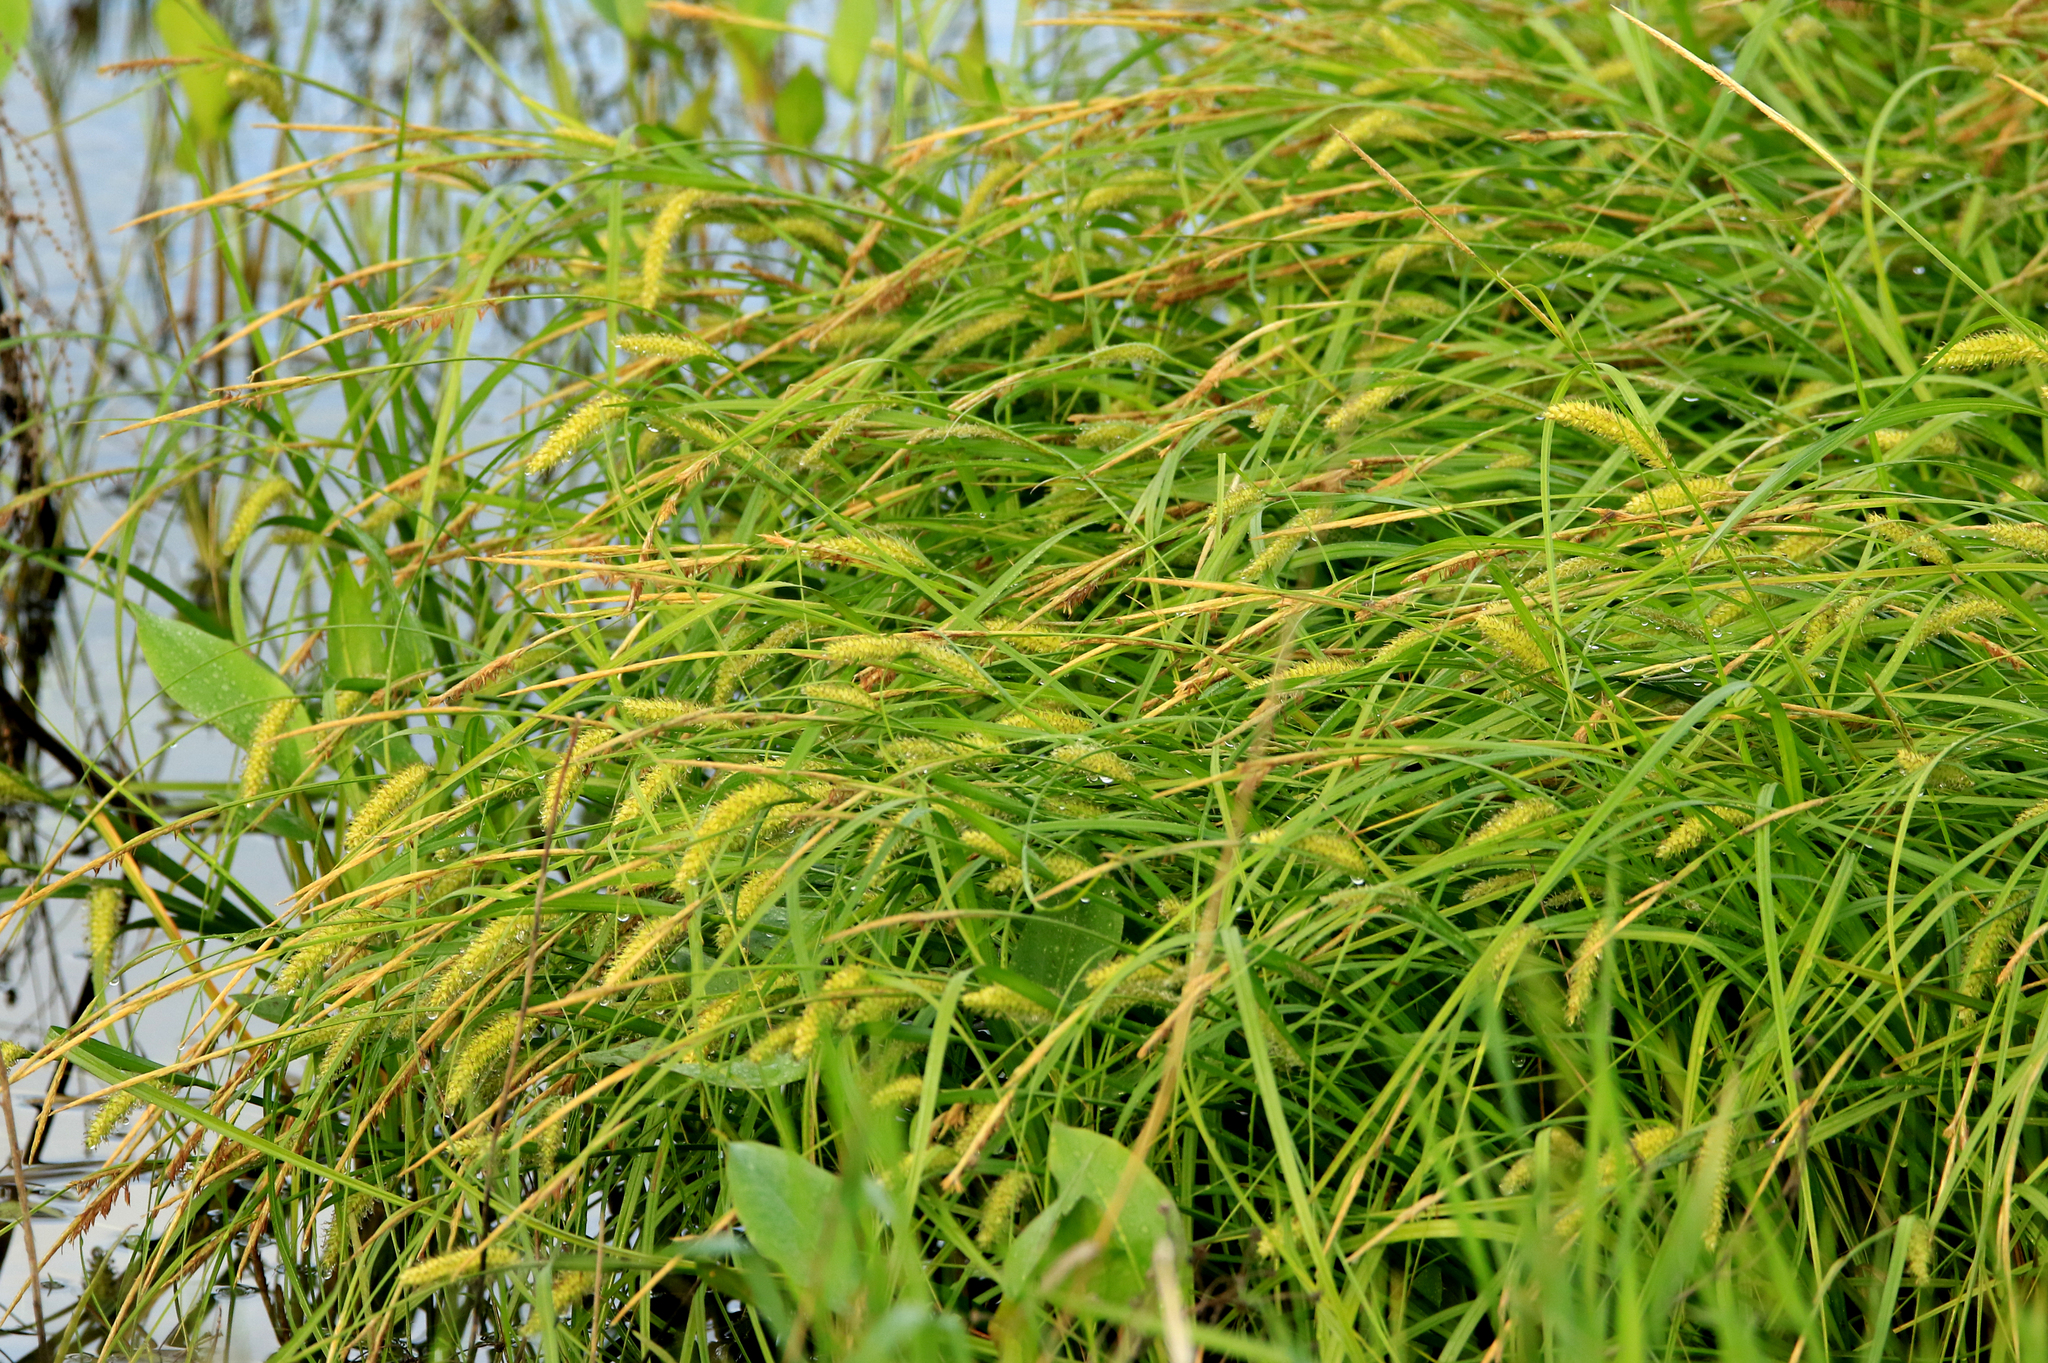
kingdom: Plantae
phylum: Tracheophyta
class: Liliopsida
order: Poales
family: Cyperaceae
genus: Carex
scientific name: Carex vesicaria
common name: Bladder-sedge
